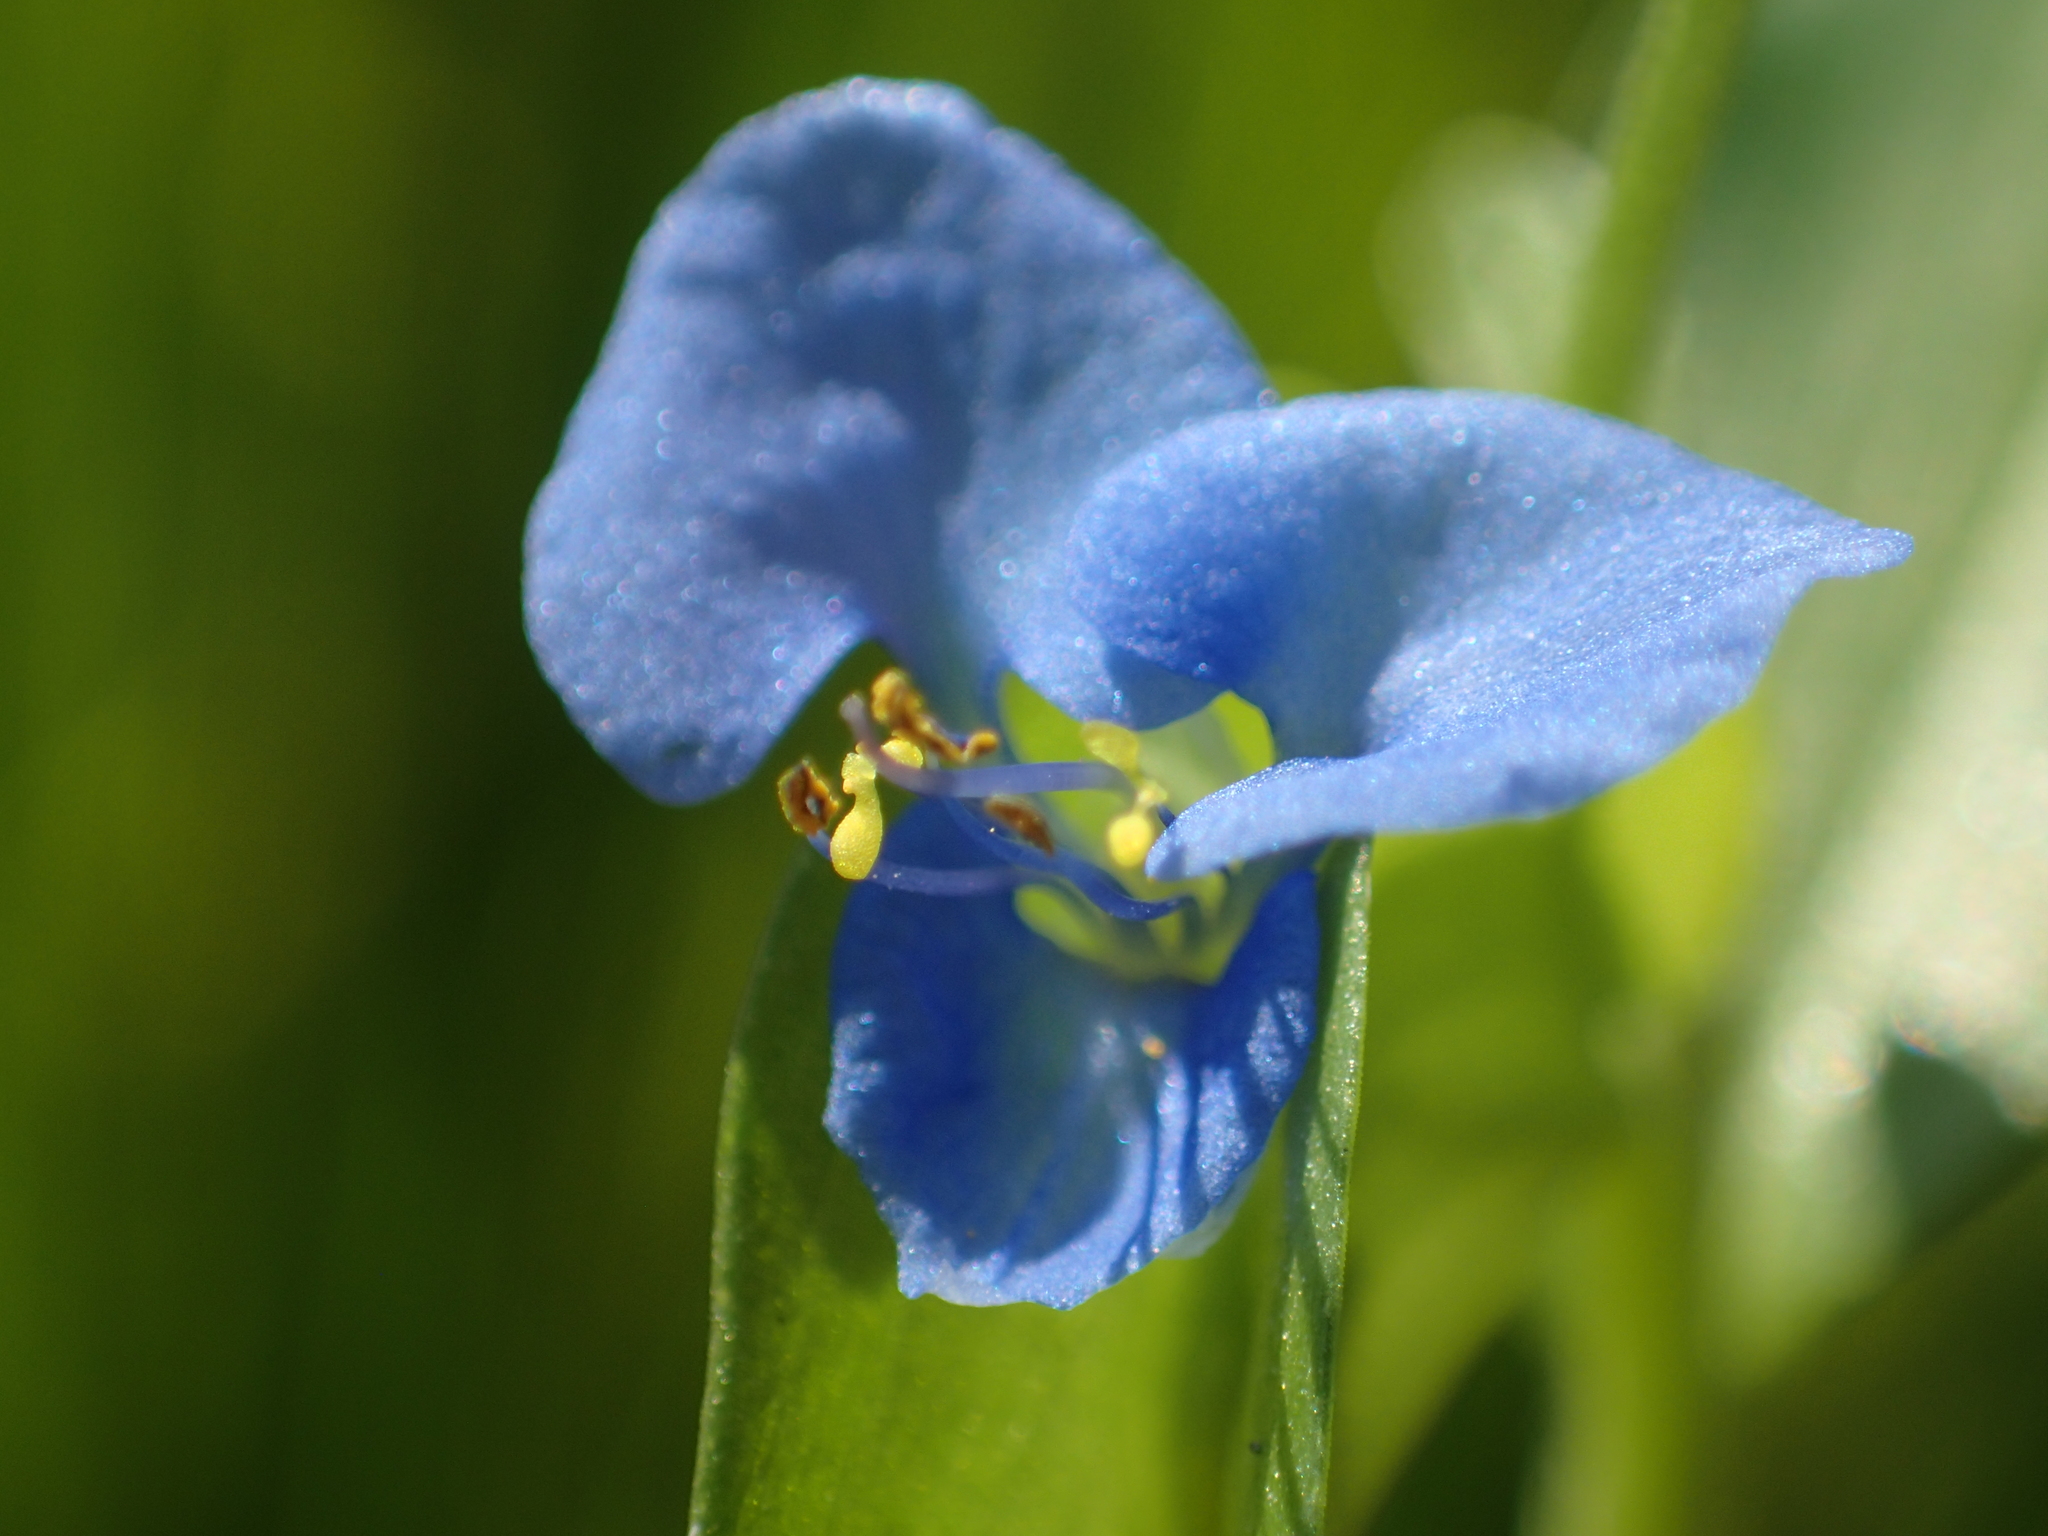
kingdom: Plantae
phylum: Tracheophyta
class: Liliopsida
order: Commelinales
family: Commelinaceae
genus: Commelina
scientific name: Commelina diffusa
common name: Climbing dayflower
